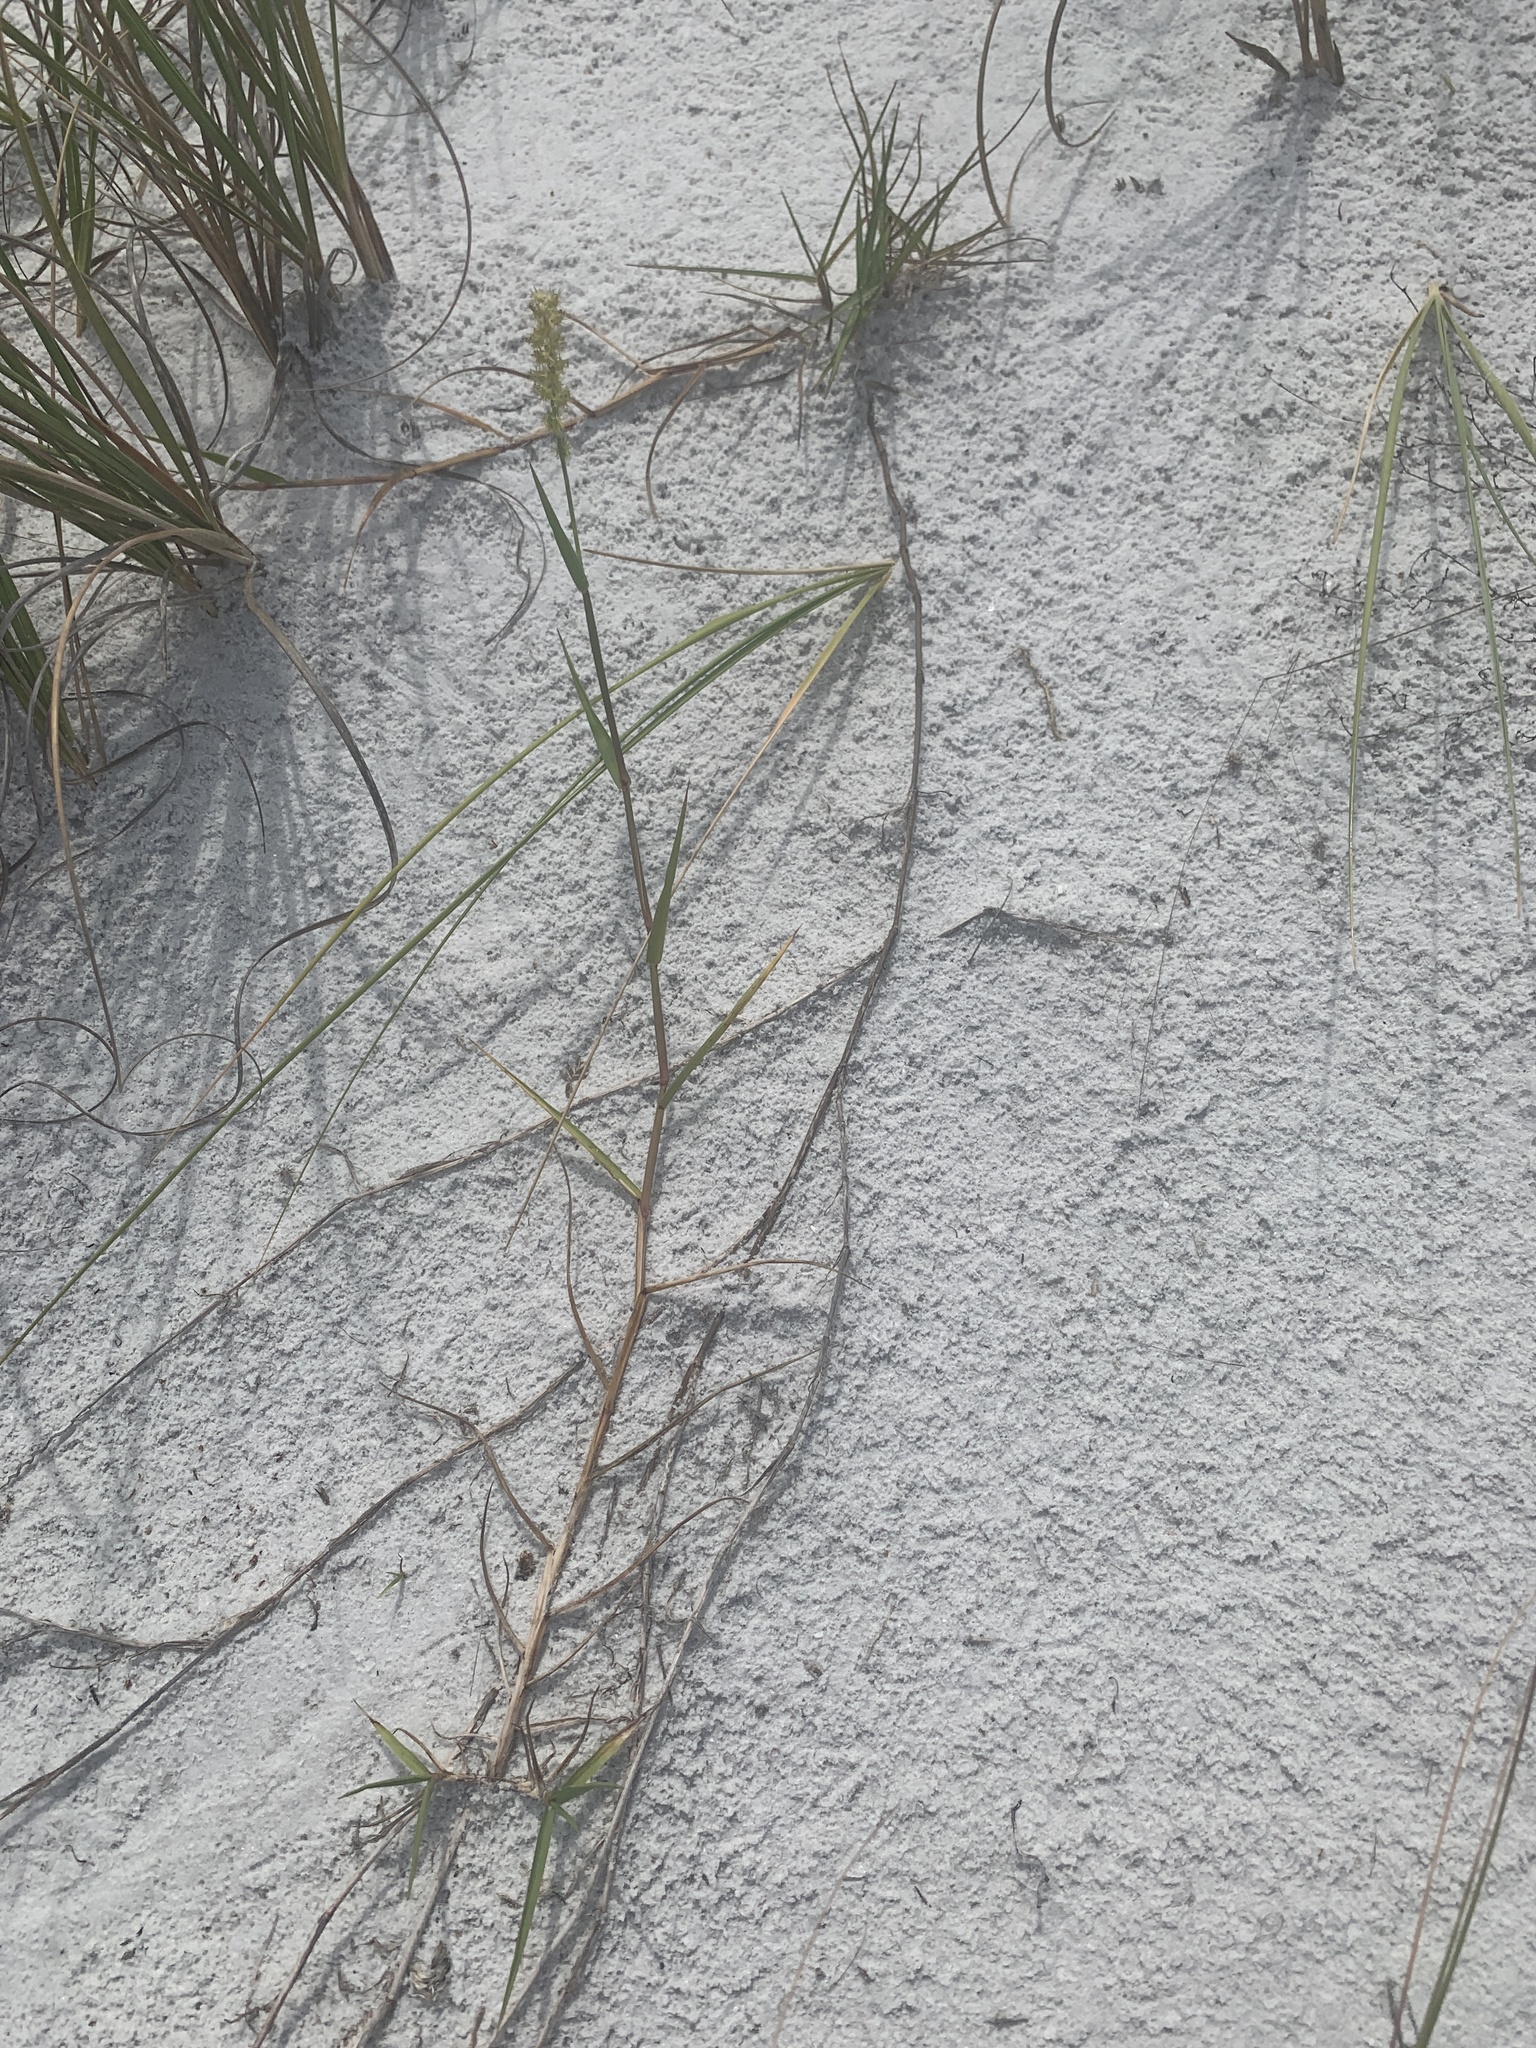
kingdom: Plantae
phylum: Tracheophyta
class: Liliopsida
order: Poales
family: Poaceae
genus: Cenchrus
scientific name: Cenchrus spinifex
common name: Coast sandbur
